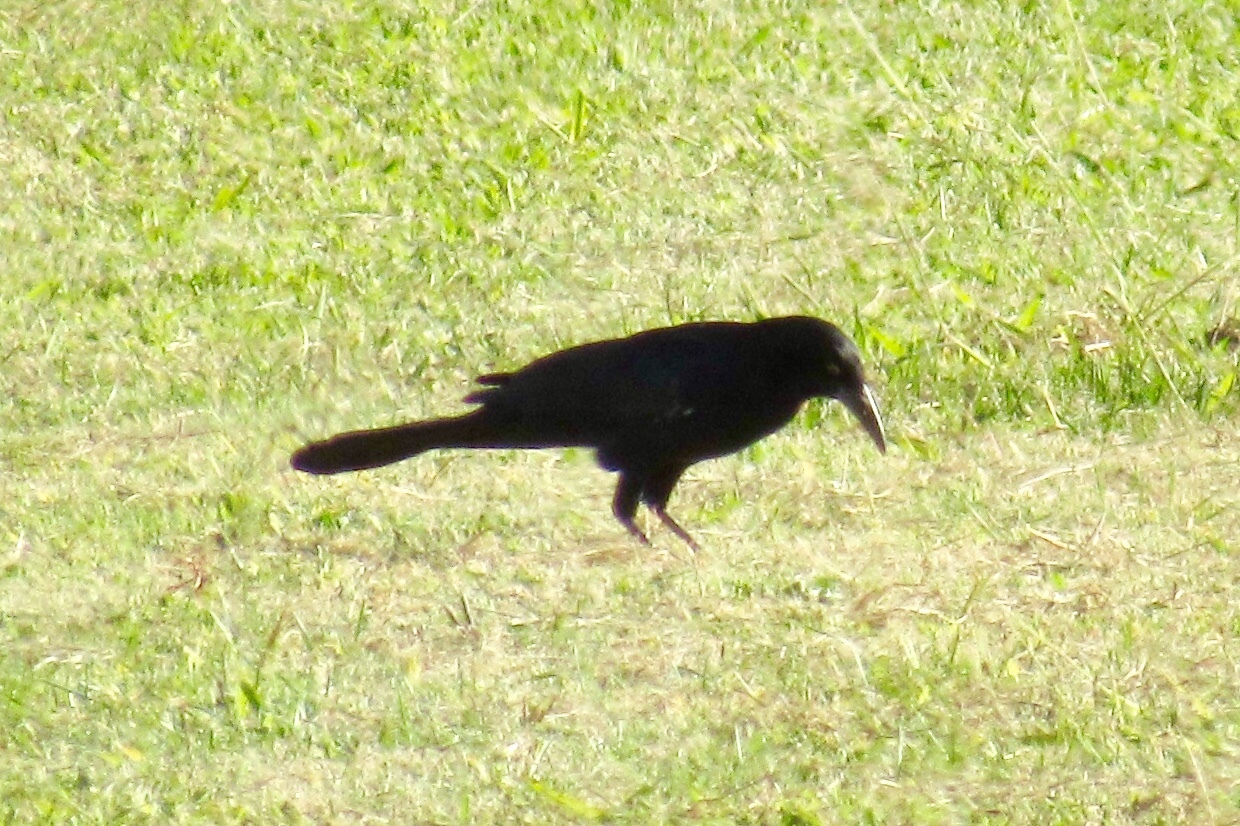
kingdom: Animalia
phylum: Chordata
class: Aves
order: Passeriformes
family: Icteridae
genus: Quiscalus
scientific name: Quiscalus mexicanus
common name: Great-tailed grackle
